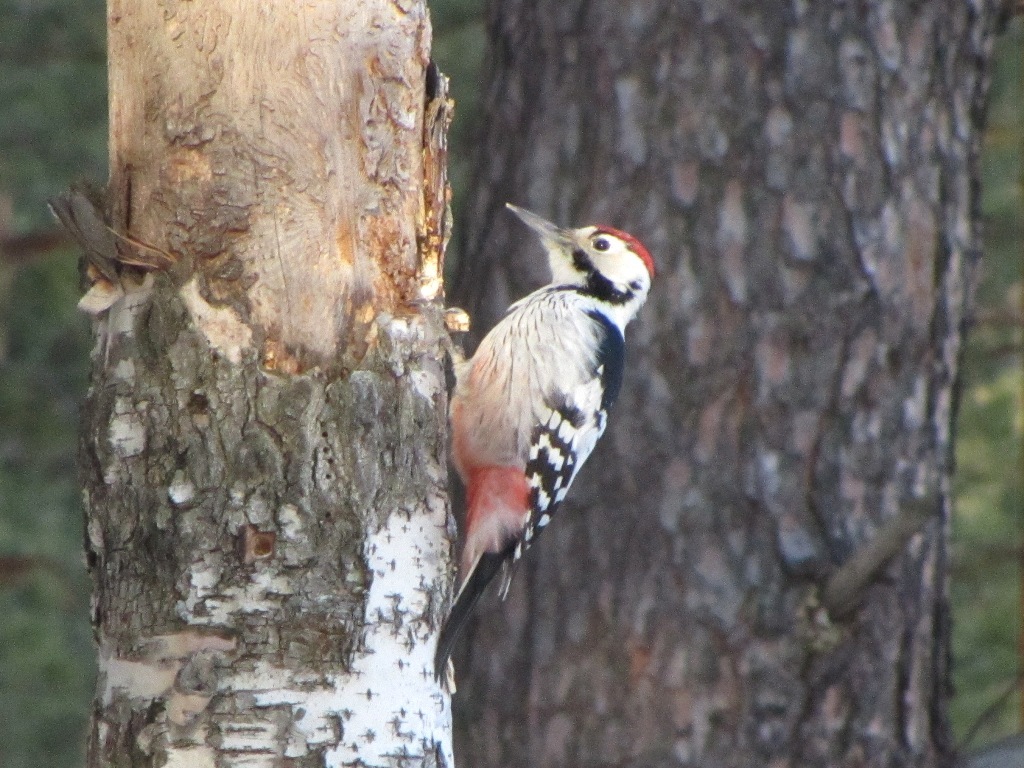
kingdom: Animalia
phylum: Chordata
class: Aves
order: Piciformes
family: Picidae
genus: Dendrocopos
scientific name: Dendrocopos leucotos
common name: White-backed woodpecker
